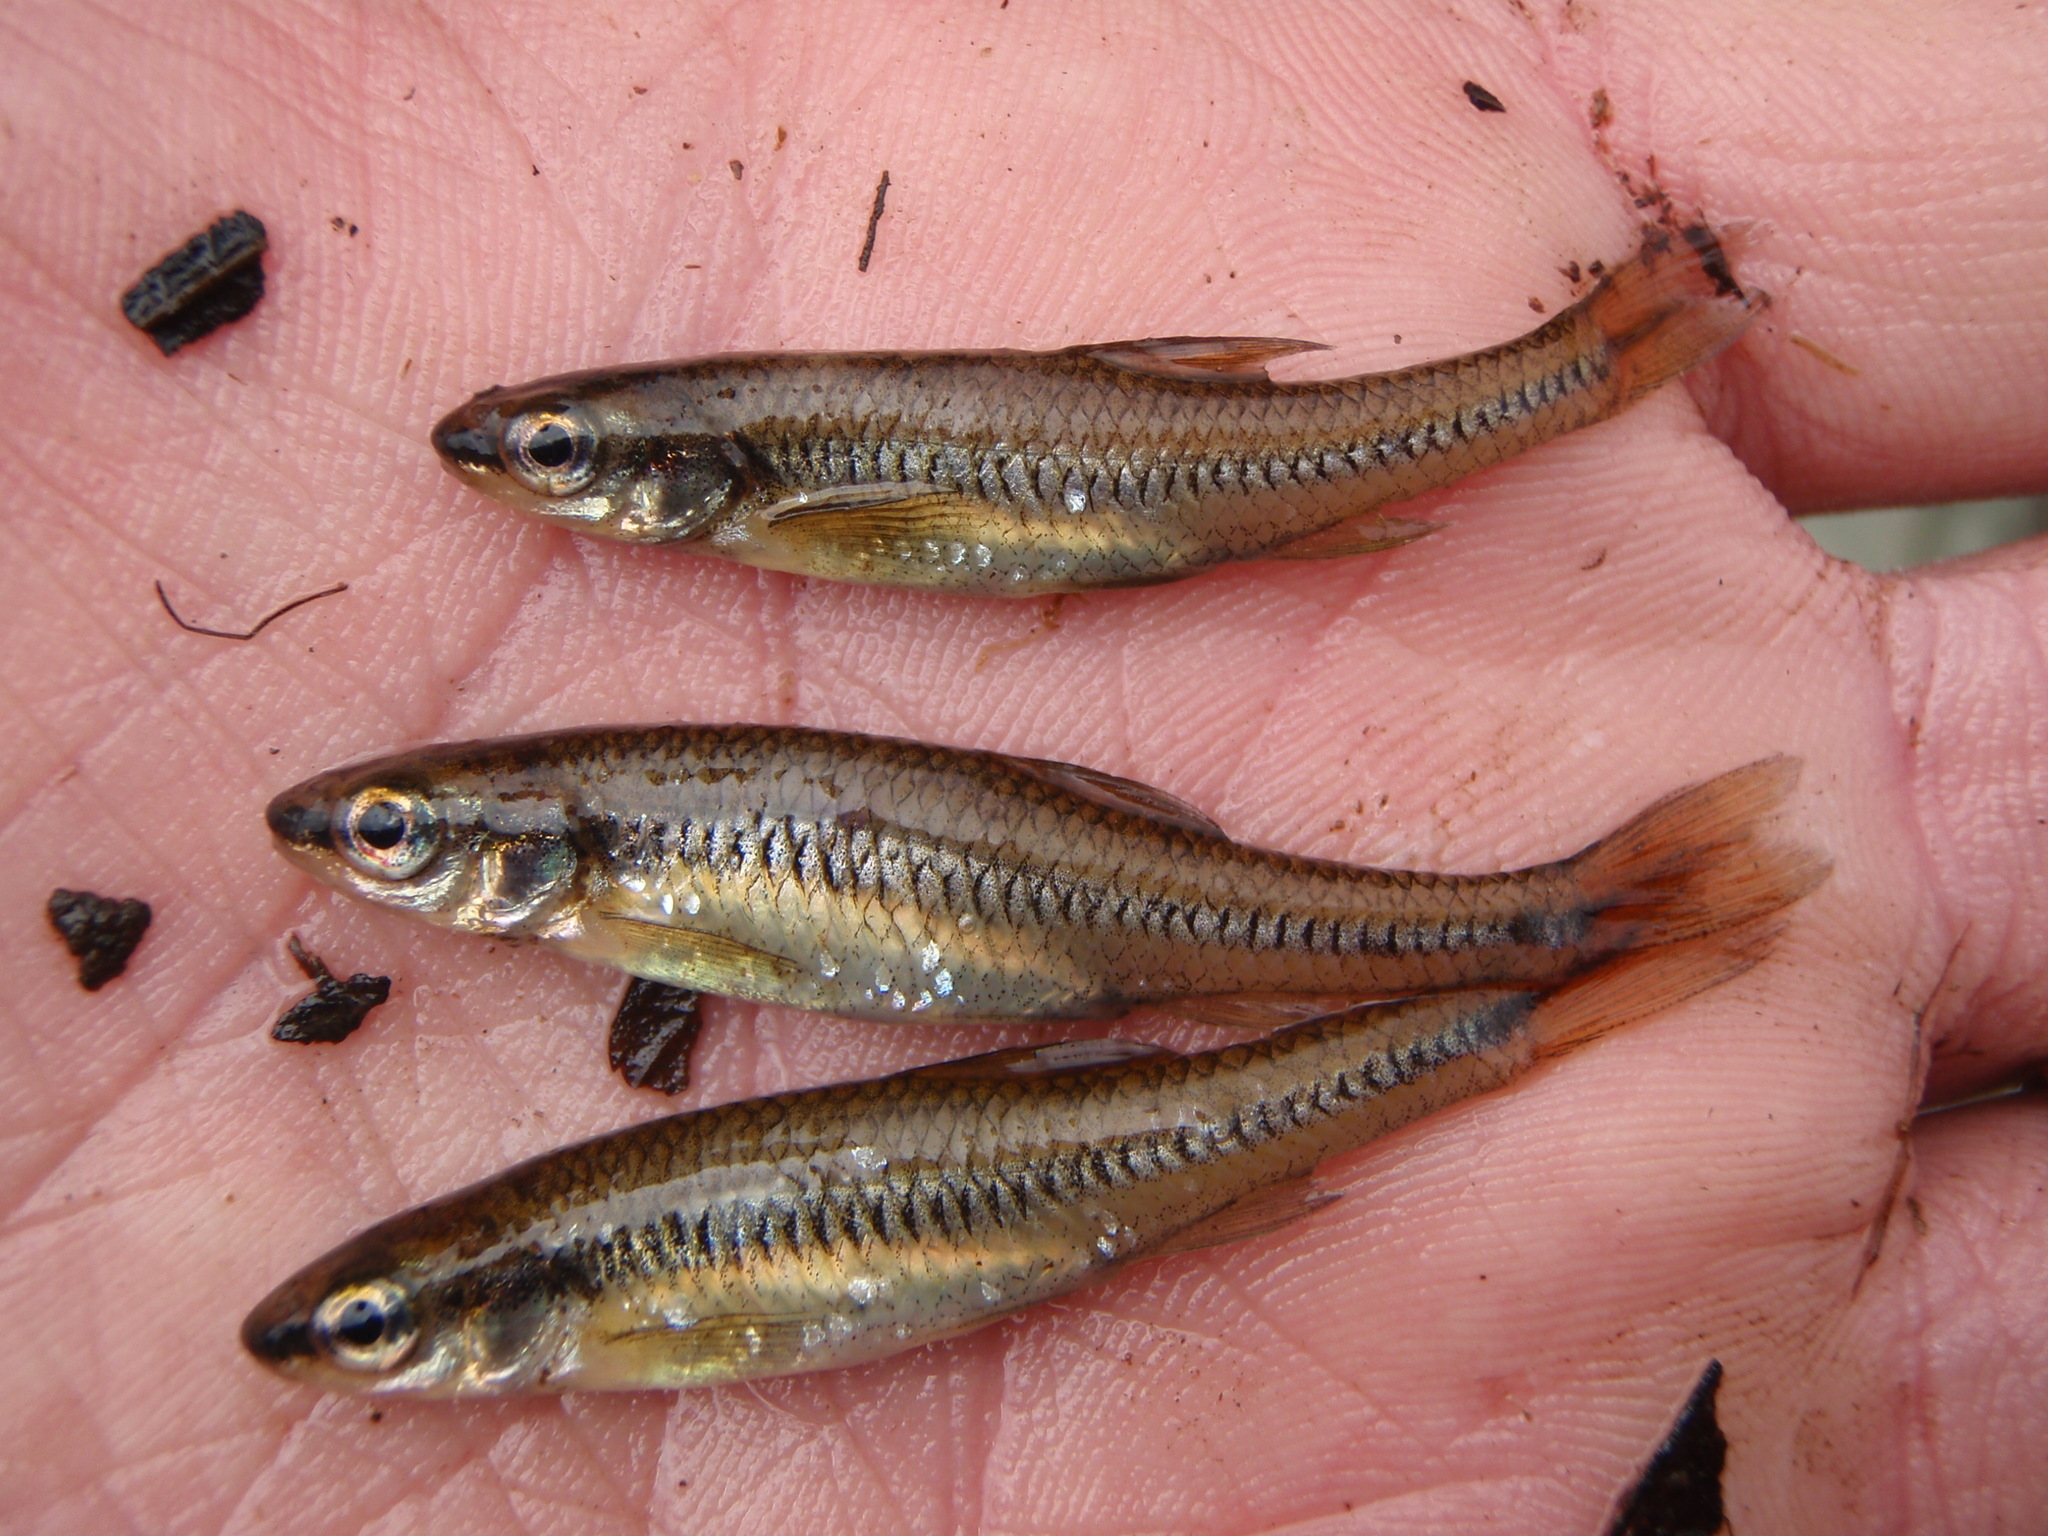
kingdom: Animalia
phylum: Chordata
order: Cypriniformes
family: Cyprinidae
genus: Notropis
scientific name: Notropis heterolepis
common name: Blacknose shiner
